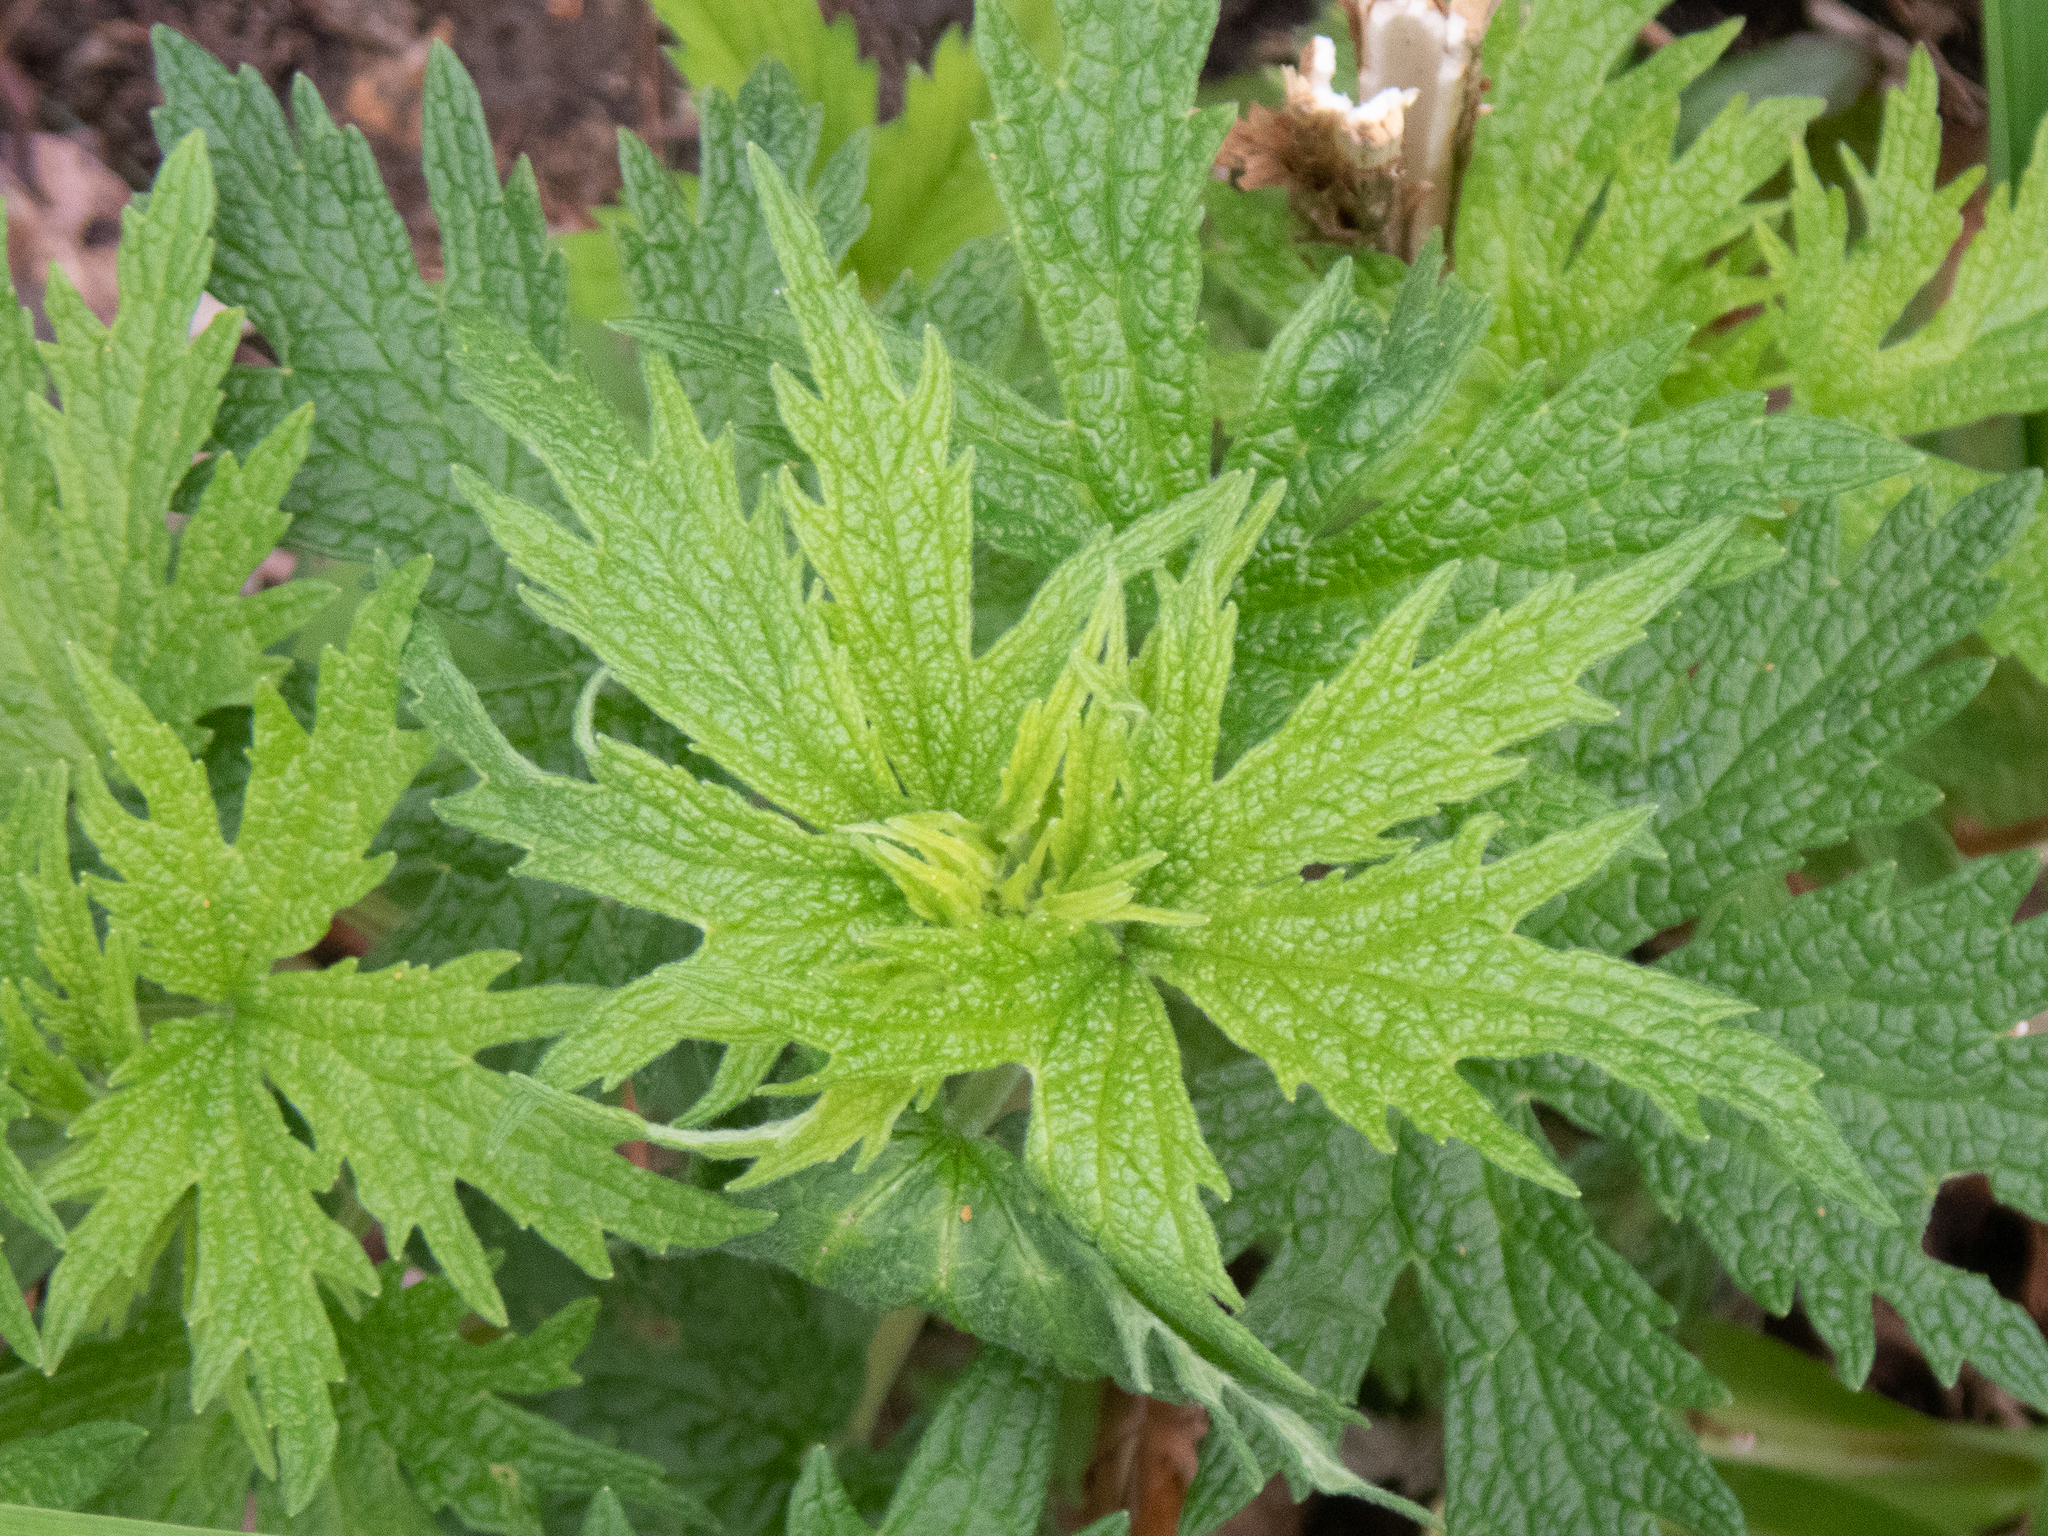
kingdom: Plantae
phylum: Tracheophyta
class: Magnoliopsida
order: Lamiales
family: Lamiaceae
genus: Leonurus
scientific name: Leonurus cardiaca
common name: Motherwort
